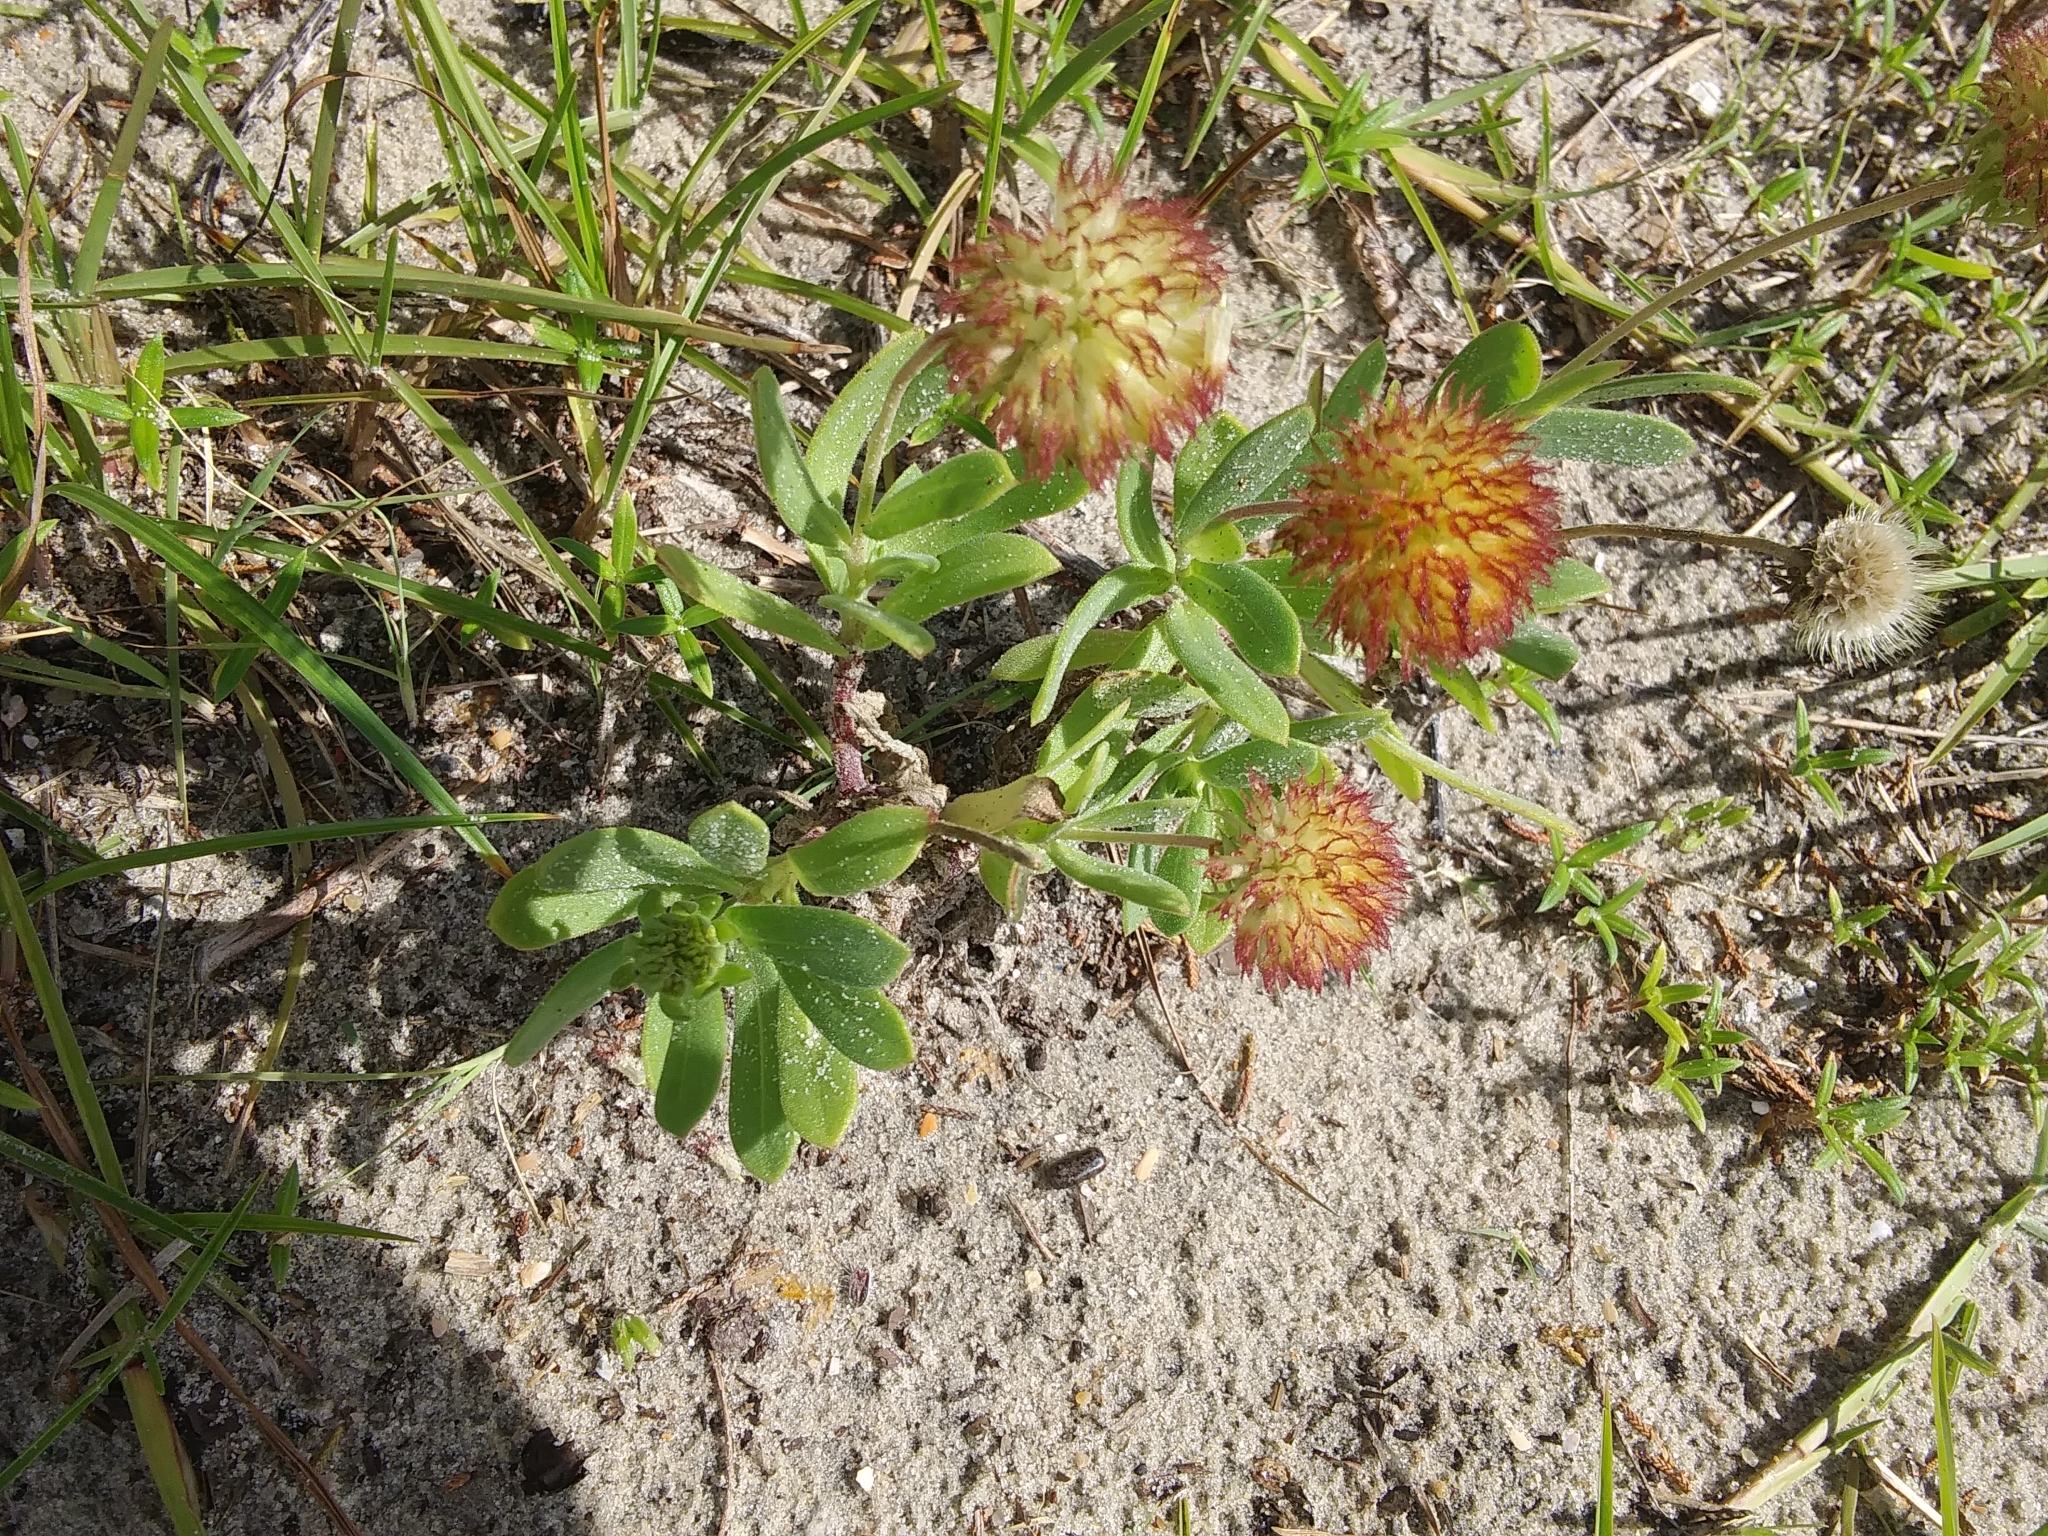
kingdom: Plantae
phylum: Tracheophyta
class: Magnoliopsida
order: Asterales
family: Asteraceae
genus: Gaillardia
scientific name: Gaillardia pulchella
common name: Firewheel
